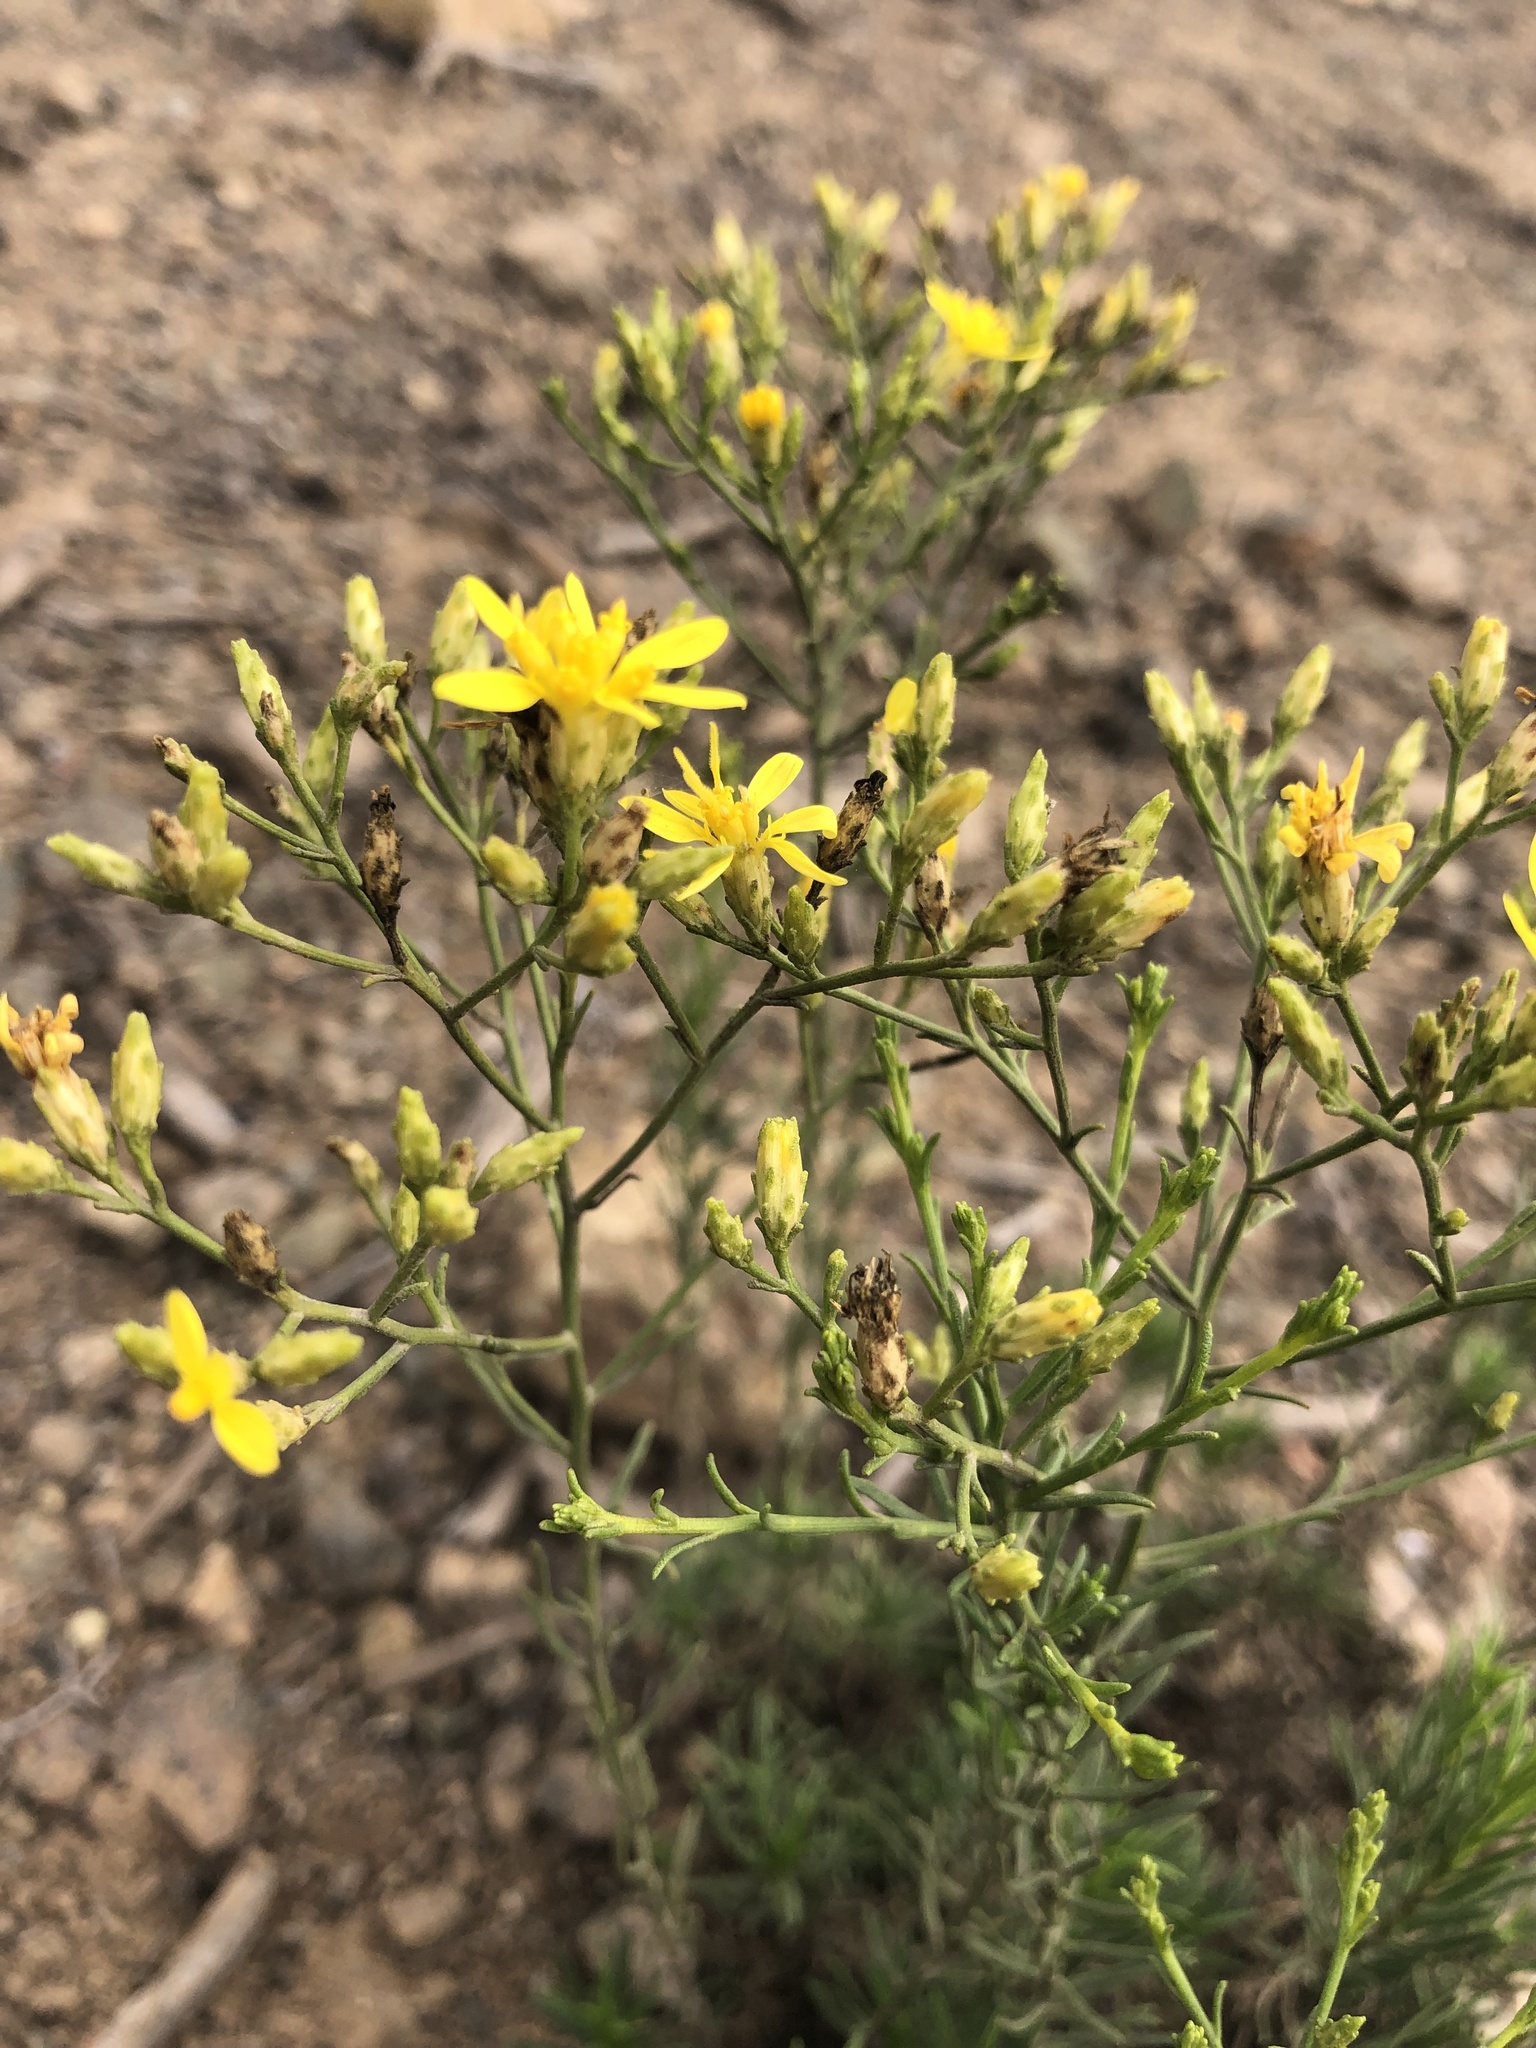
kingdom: Plantae
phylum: Tracheophyta
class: Magnoliopsida
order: Asterales
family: Asteraceae
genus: Gutierrezia
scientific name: Gutierrezia resinosa
